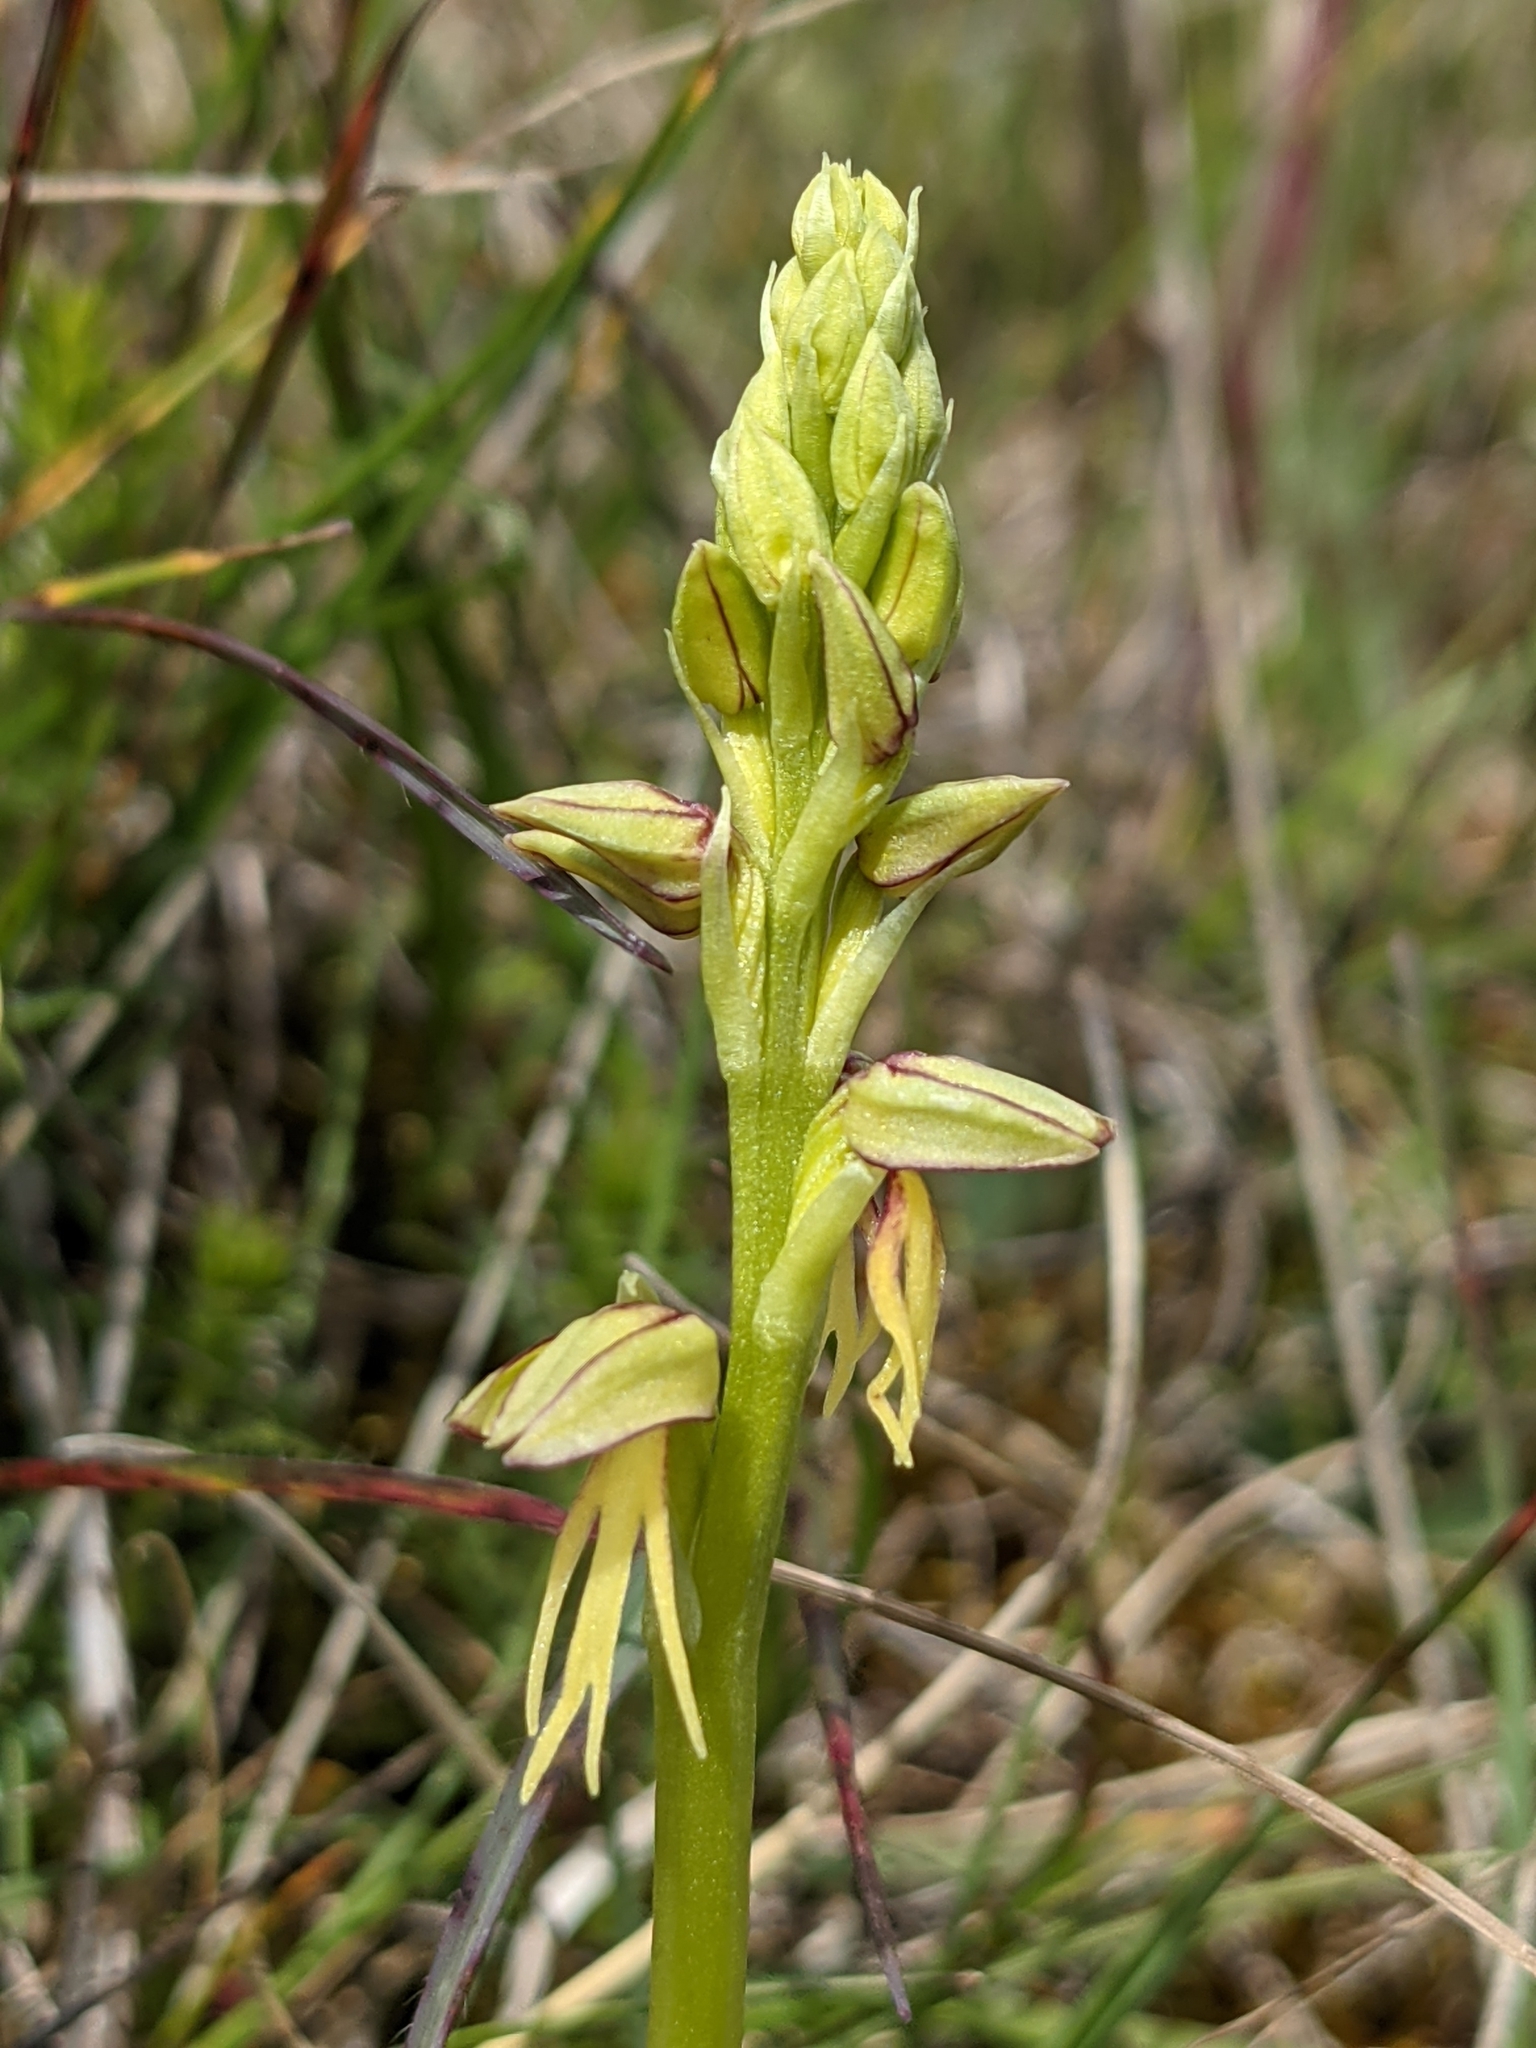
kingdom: Plantae
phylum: Tracheophyta
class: Liliopsida
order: Asparagales
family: Orchidaceae
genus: Orchis
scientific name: Orchis anthropophora
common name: Man orchid
